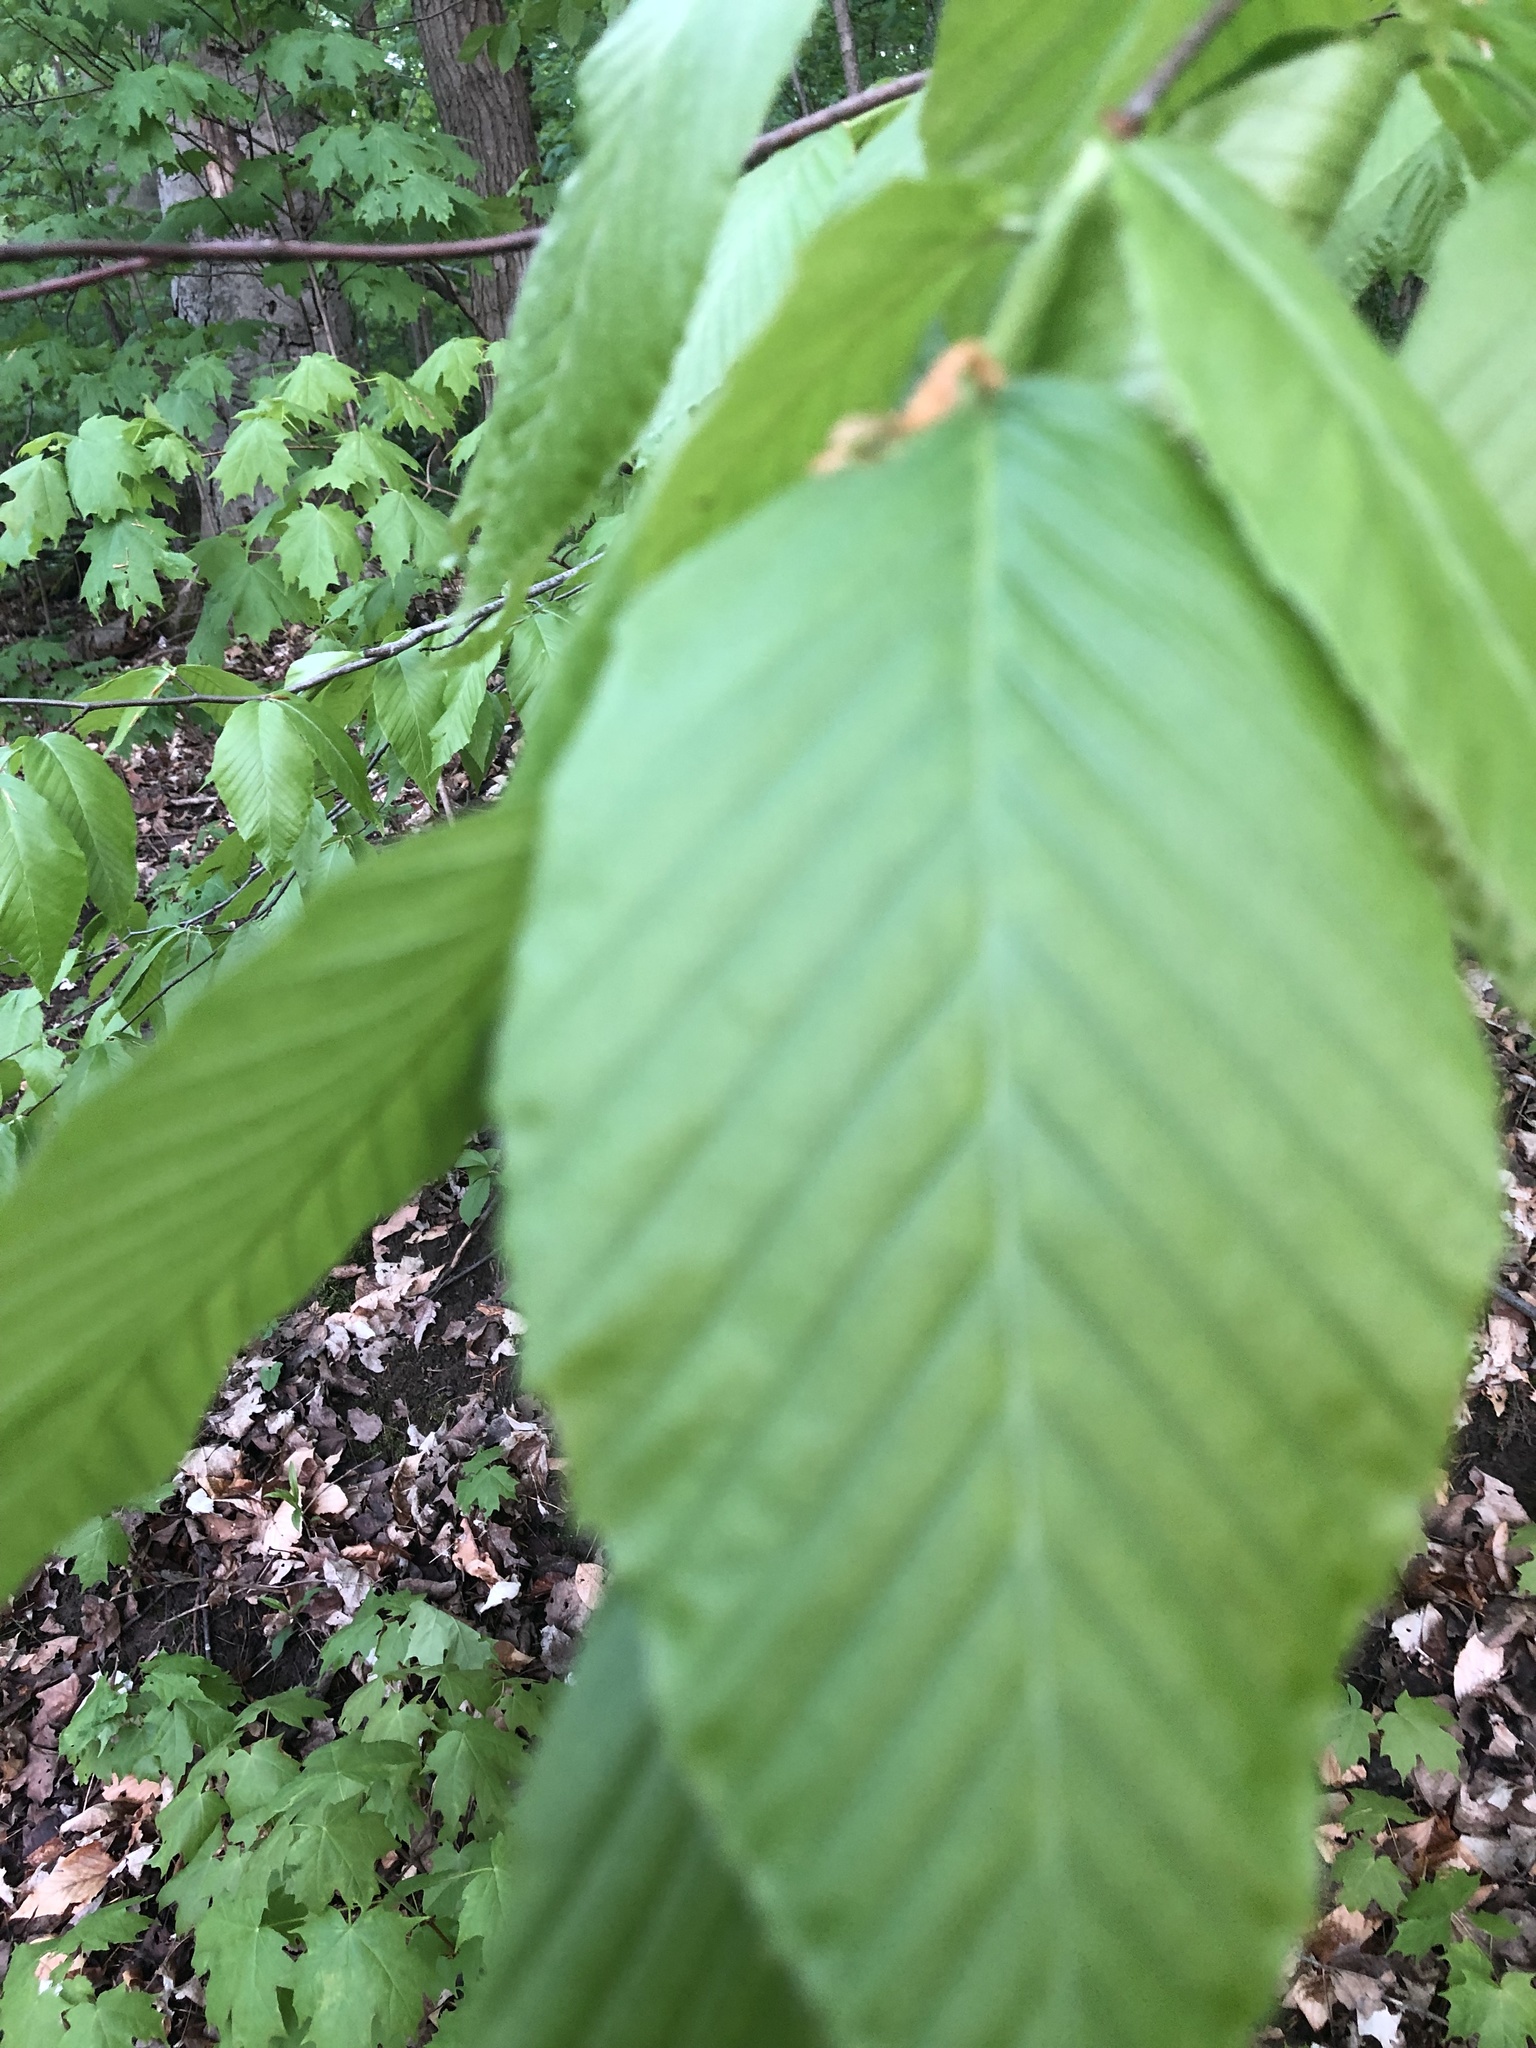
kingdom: Plantae
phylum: Tracheophyta
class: Magnoliopsida
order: Fagales
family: Fagaceae
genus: Fagus
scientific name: Fagus grandifolia
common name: American beech
